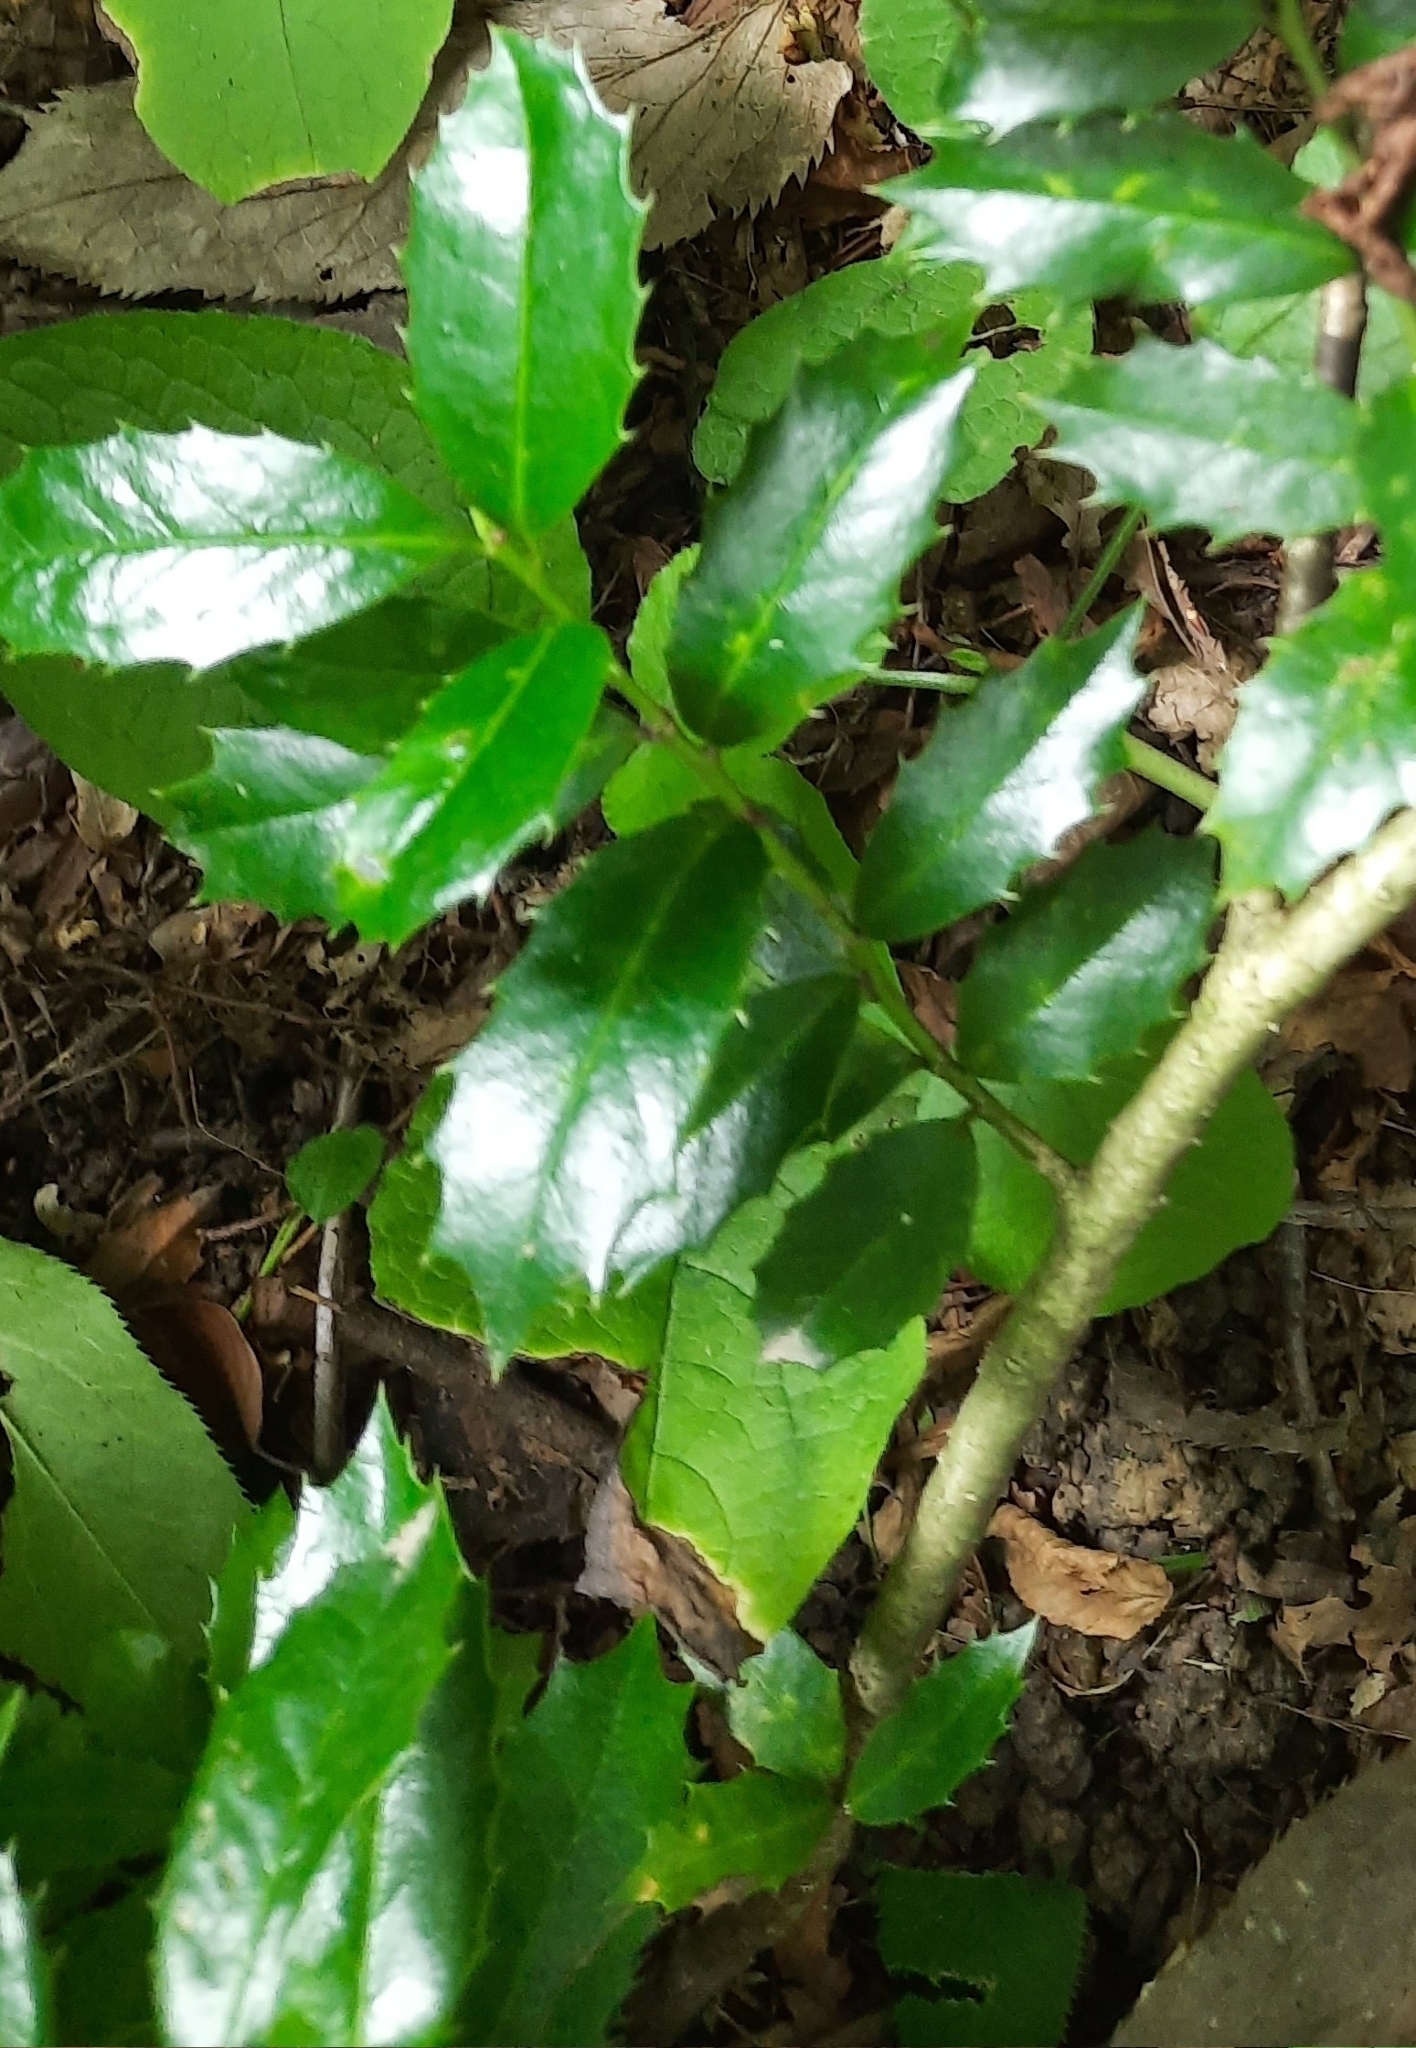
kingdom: Plantae
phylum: Tracheophyta
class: Magnoliopsida
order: Aquifoliales
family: Aquifoliaceae
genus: Ilex
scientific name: Ilex colchica
